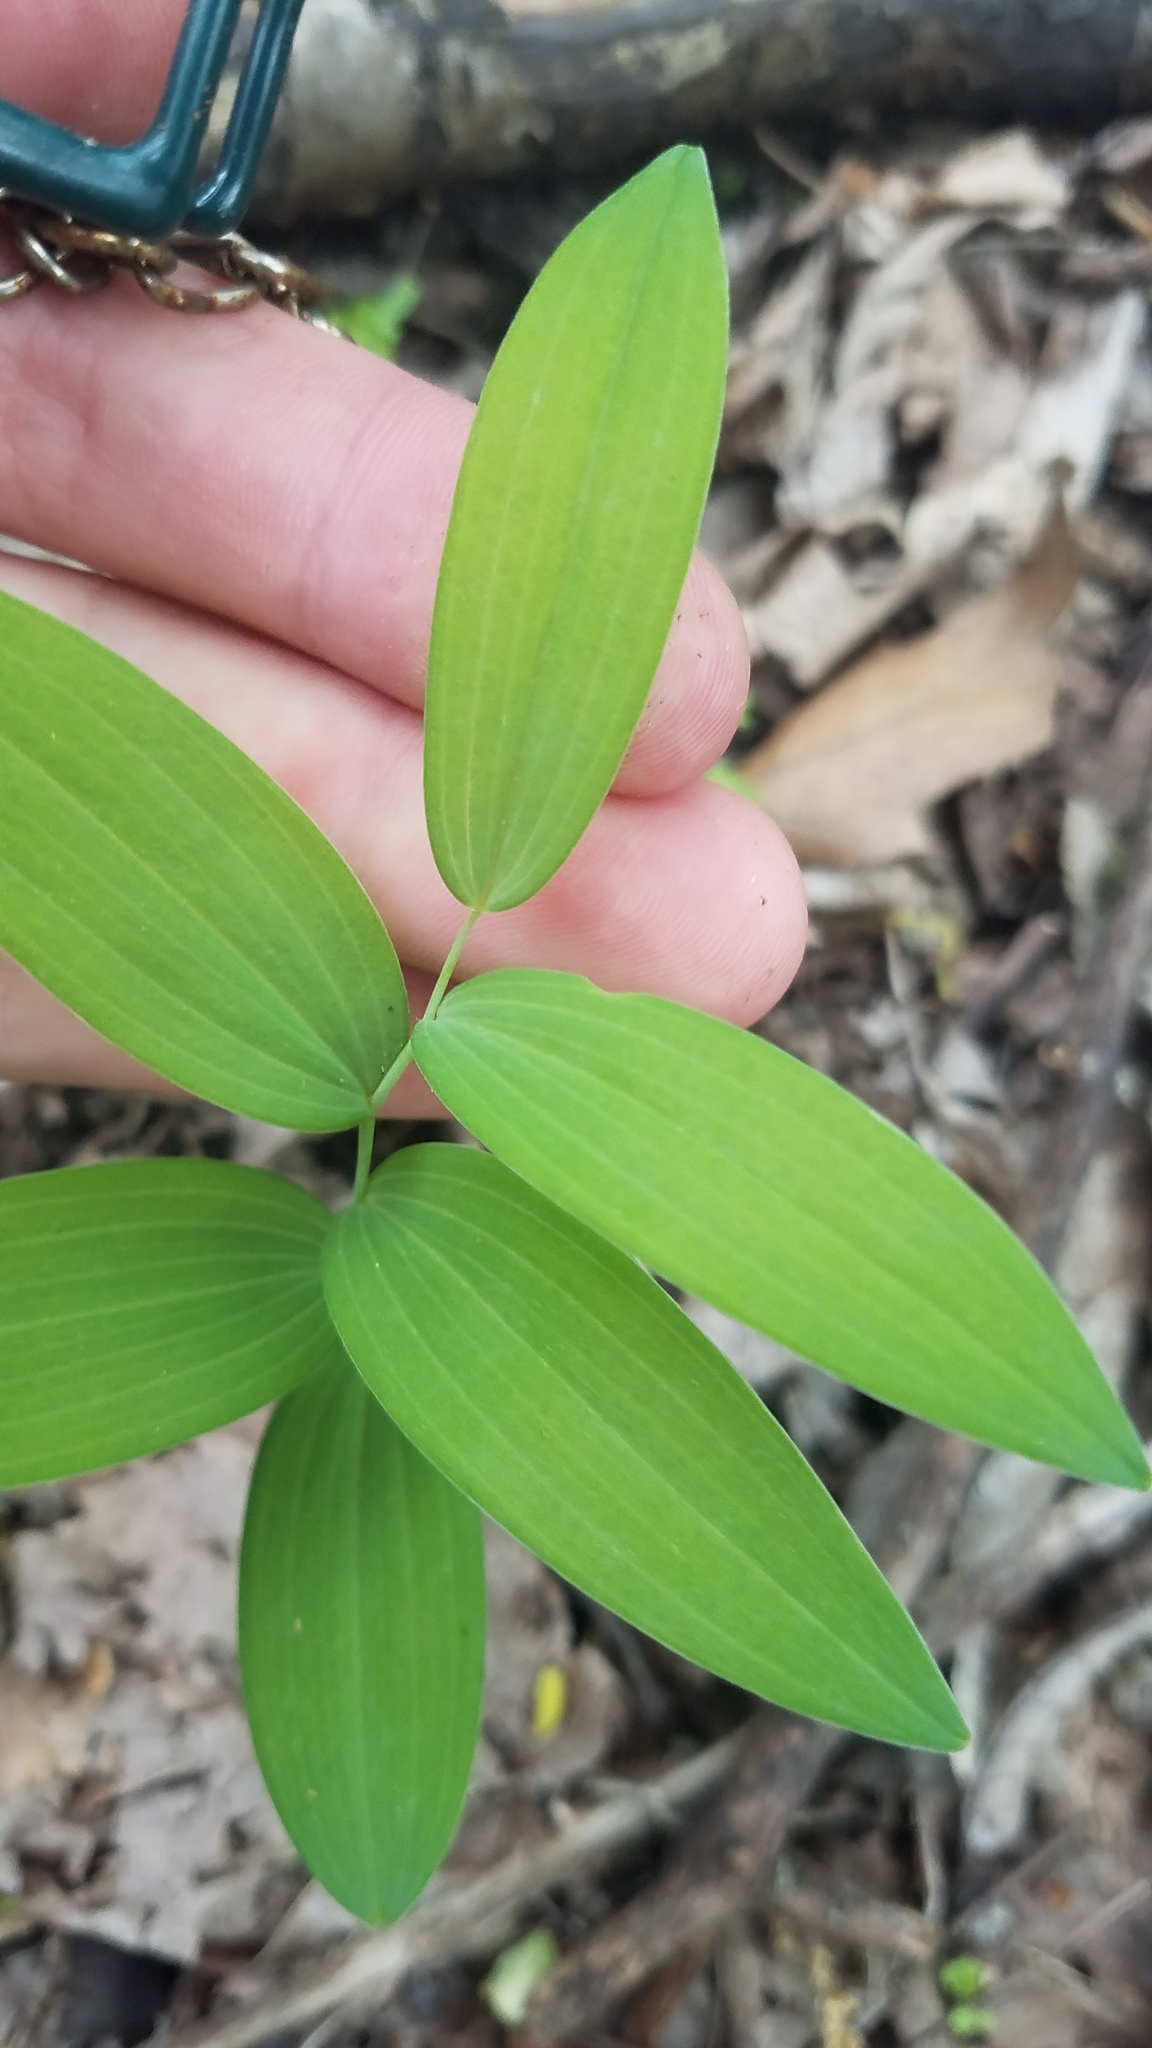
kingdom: Plantae
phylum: Tracheophyta
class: Liliopsida
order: Asparagales
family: Asparagaceae
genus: Polygonatum
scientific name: Polygonatum biflorum
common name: American solomon's-seal
